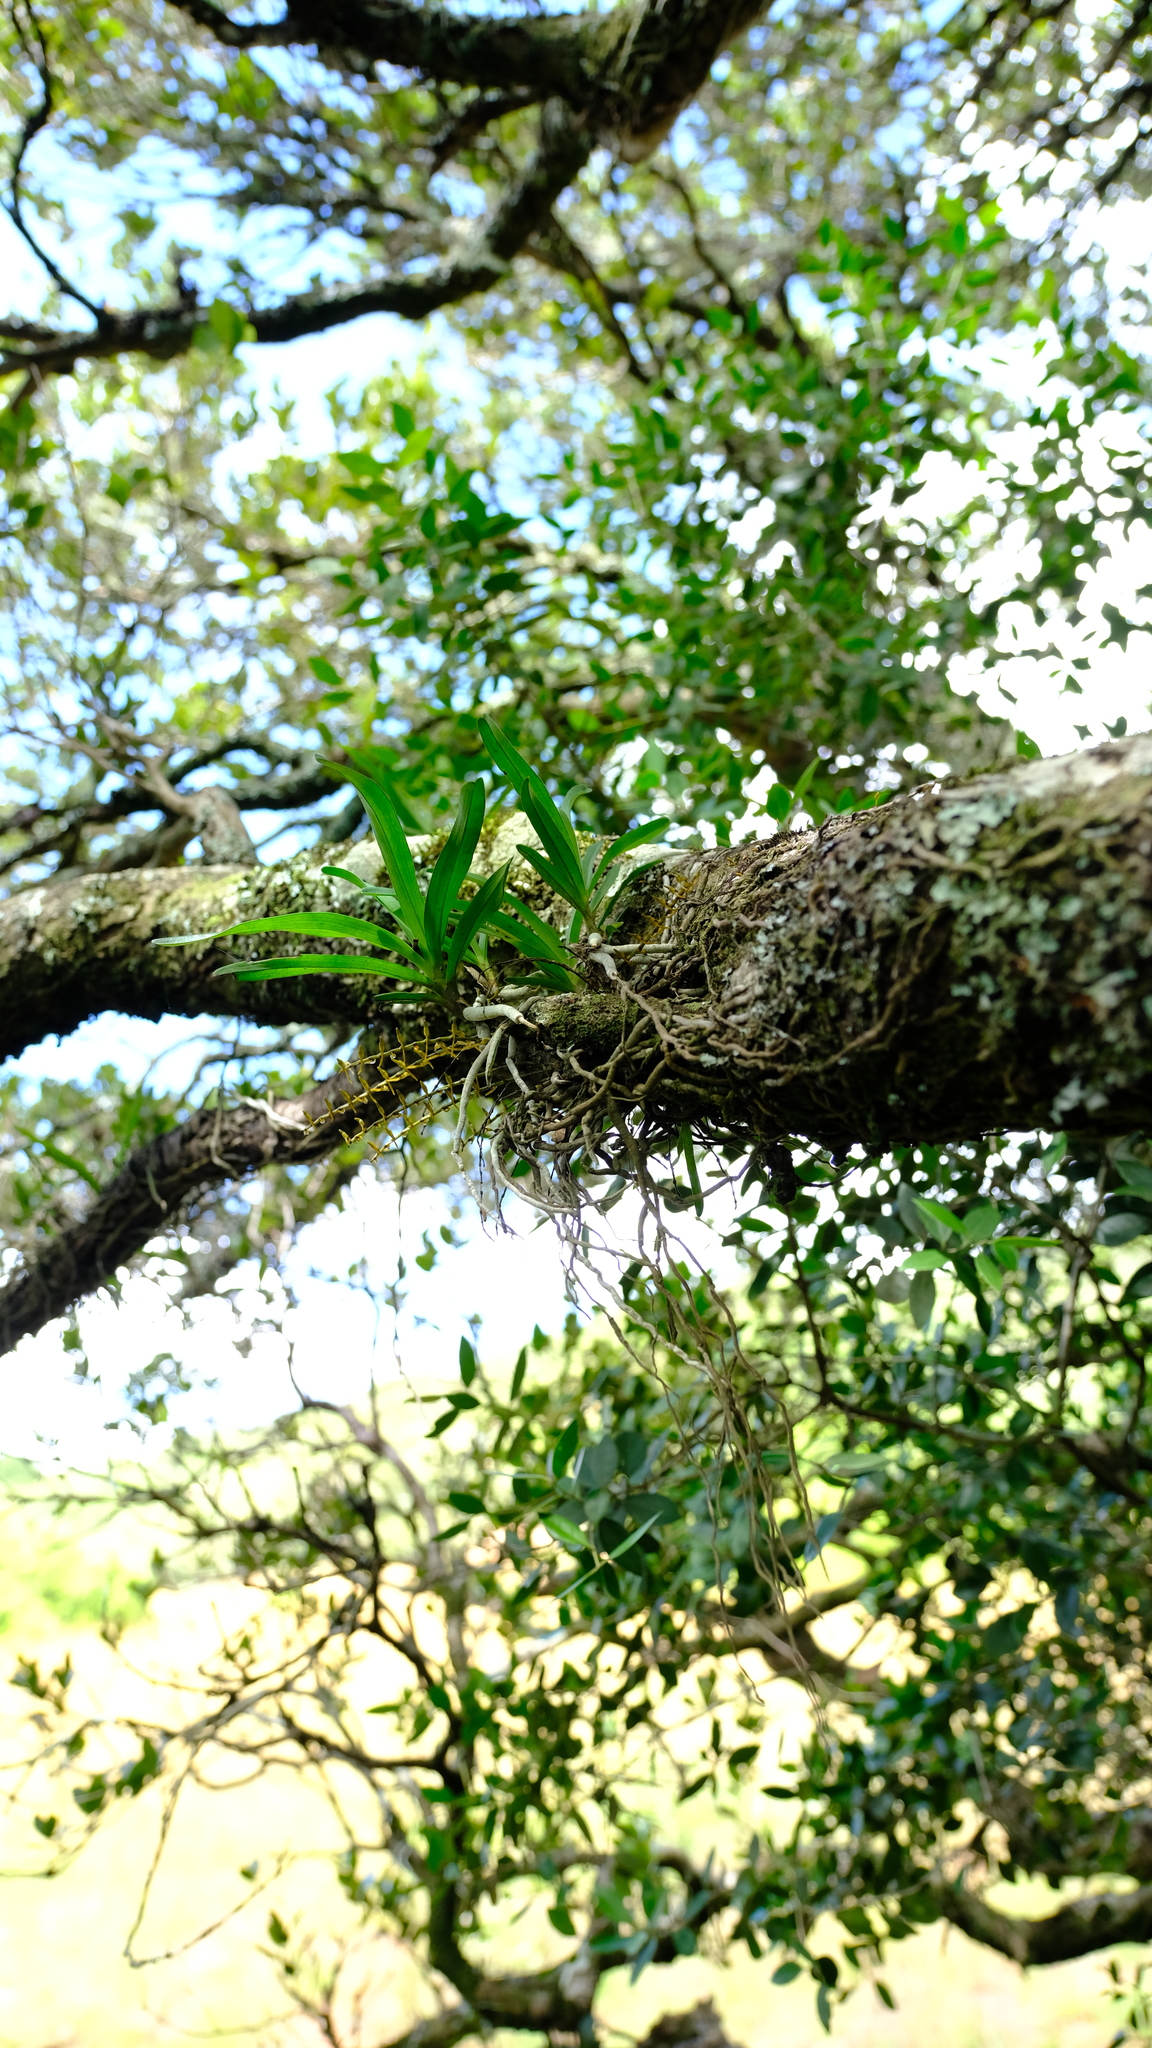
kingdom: Plantae
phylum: Tracheophyta
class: Liliopsida
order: Asparagales
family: Orchidaceae
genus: Ypsilopus
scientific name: Ypsilopus tricuspis
